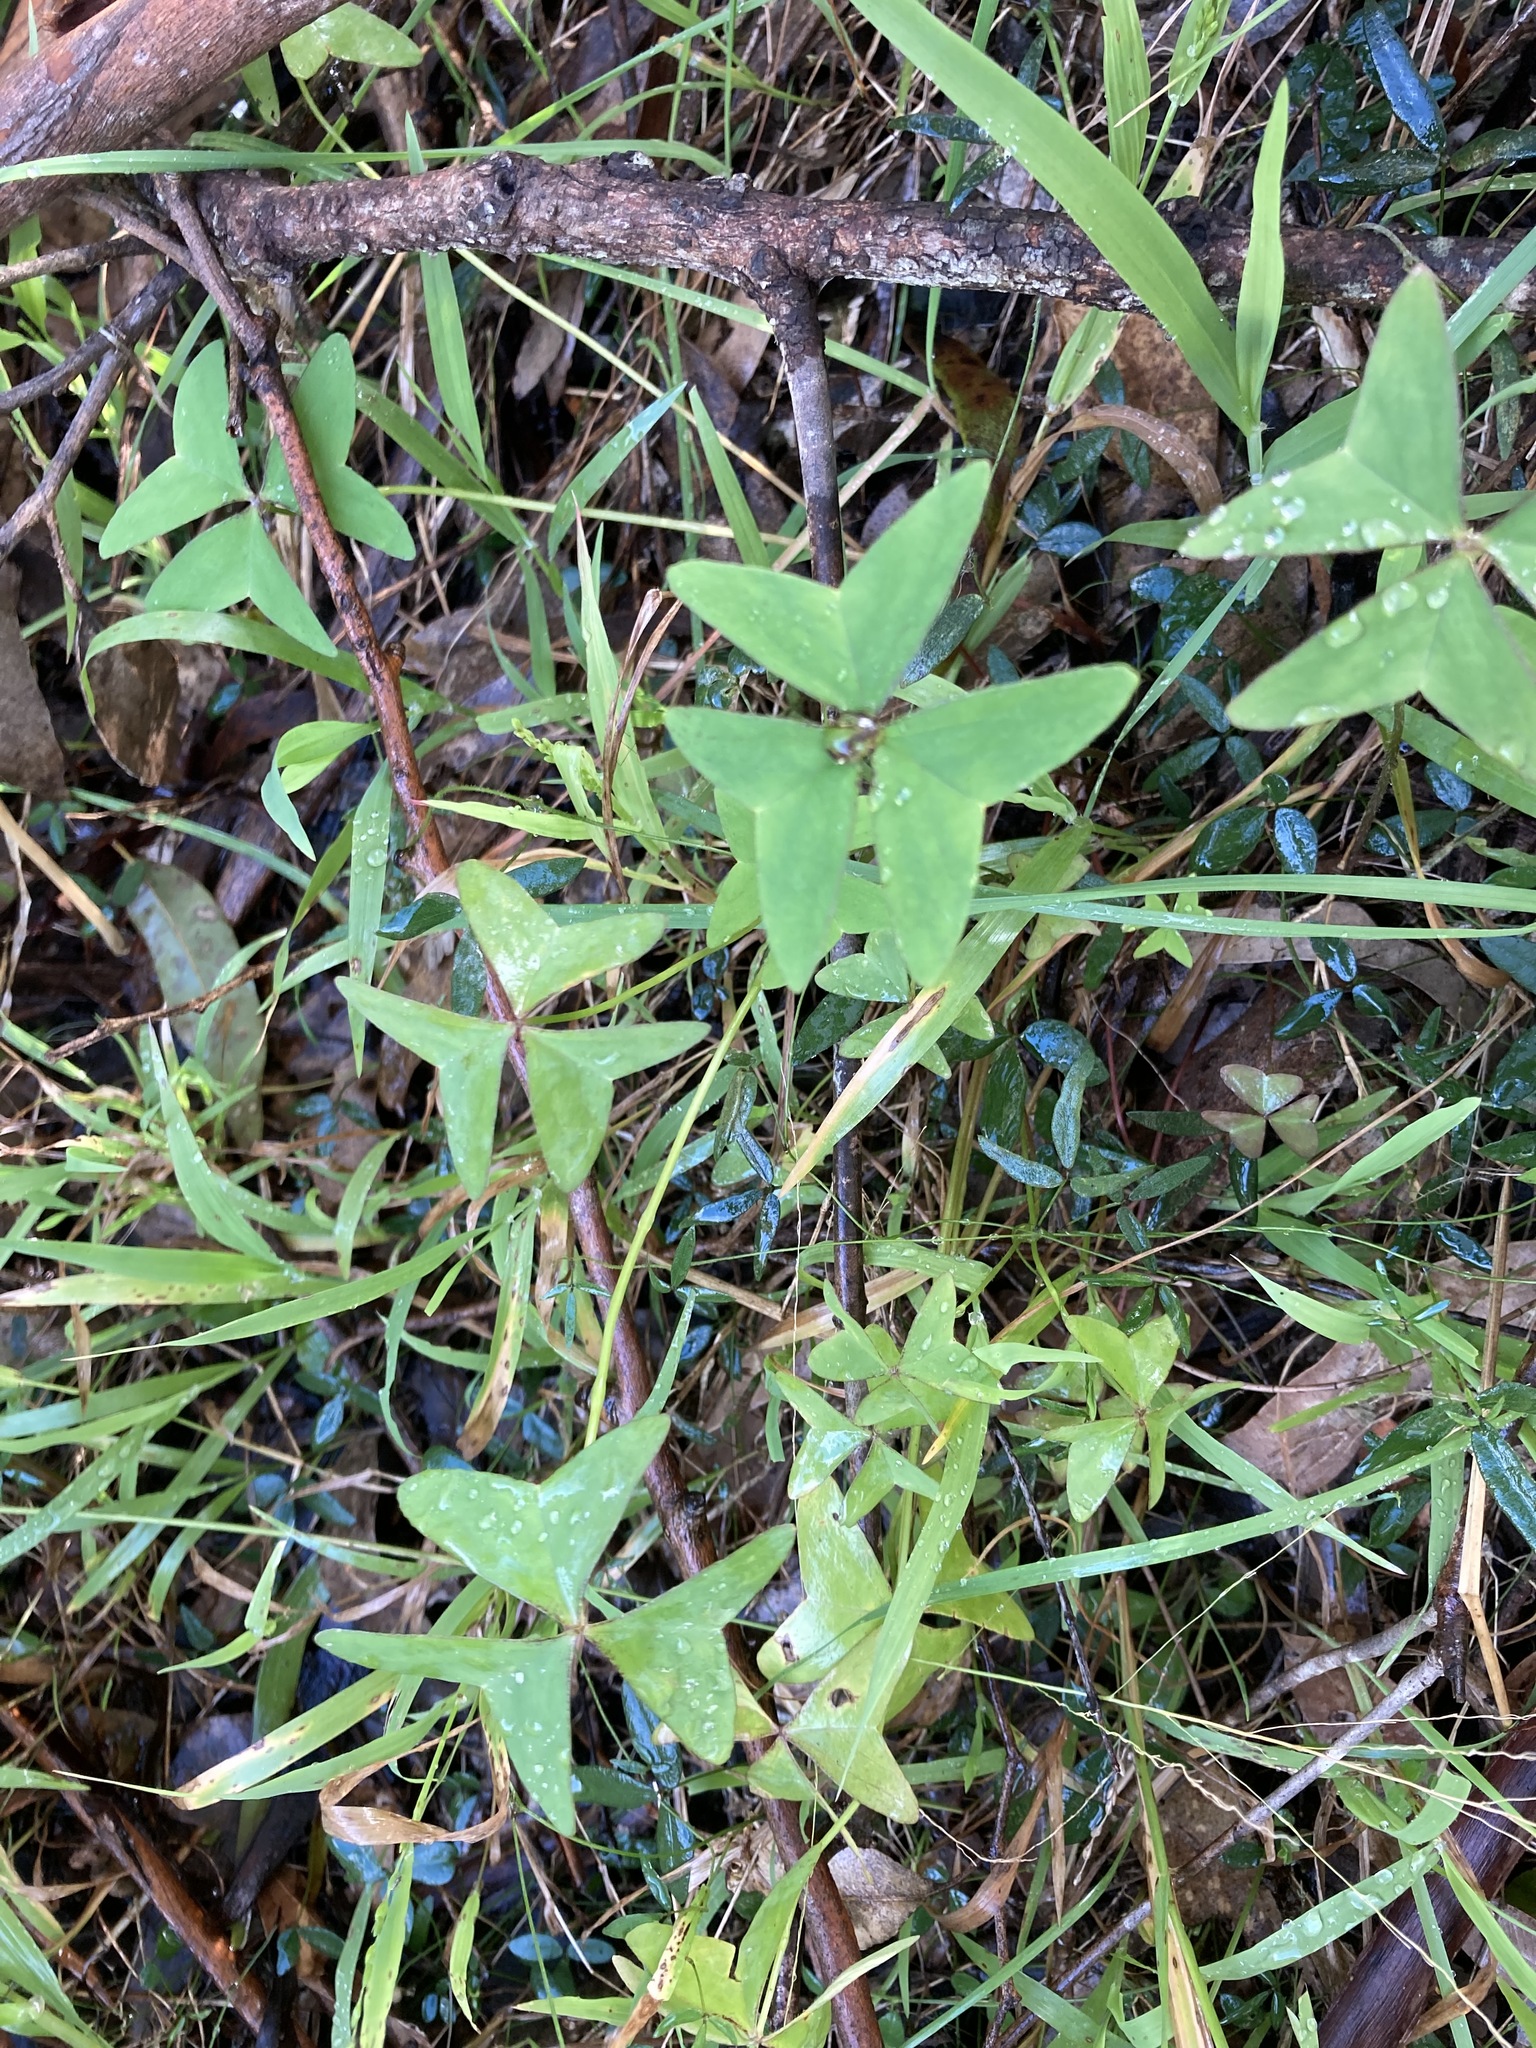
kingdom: Plantae
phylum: Tracheophyta
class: Magnoliopsida
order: Oxalidales
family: Oxalidaceae
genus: Oxalis
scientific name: Oxalis latifolia
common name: Garden pink-sorrel
